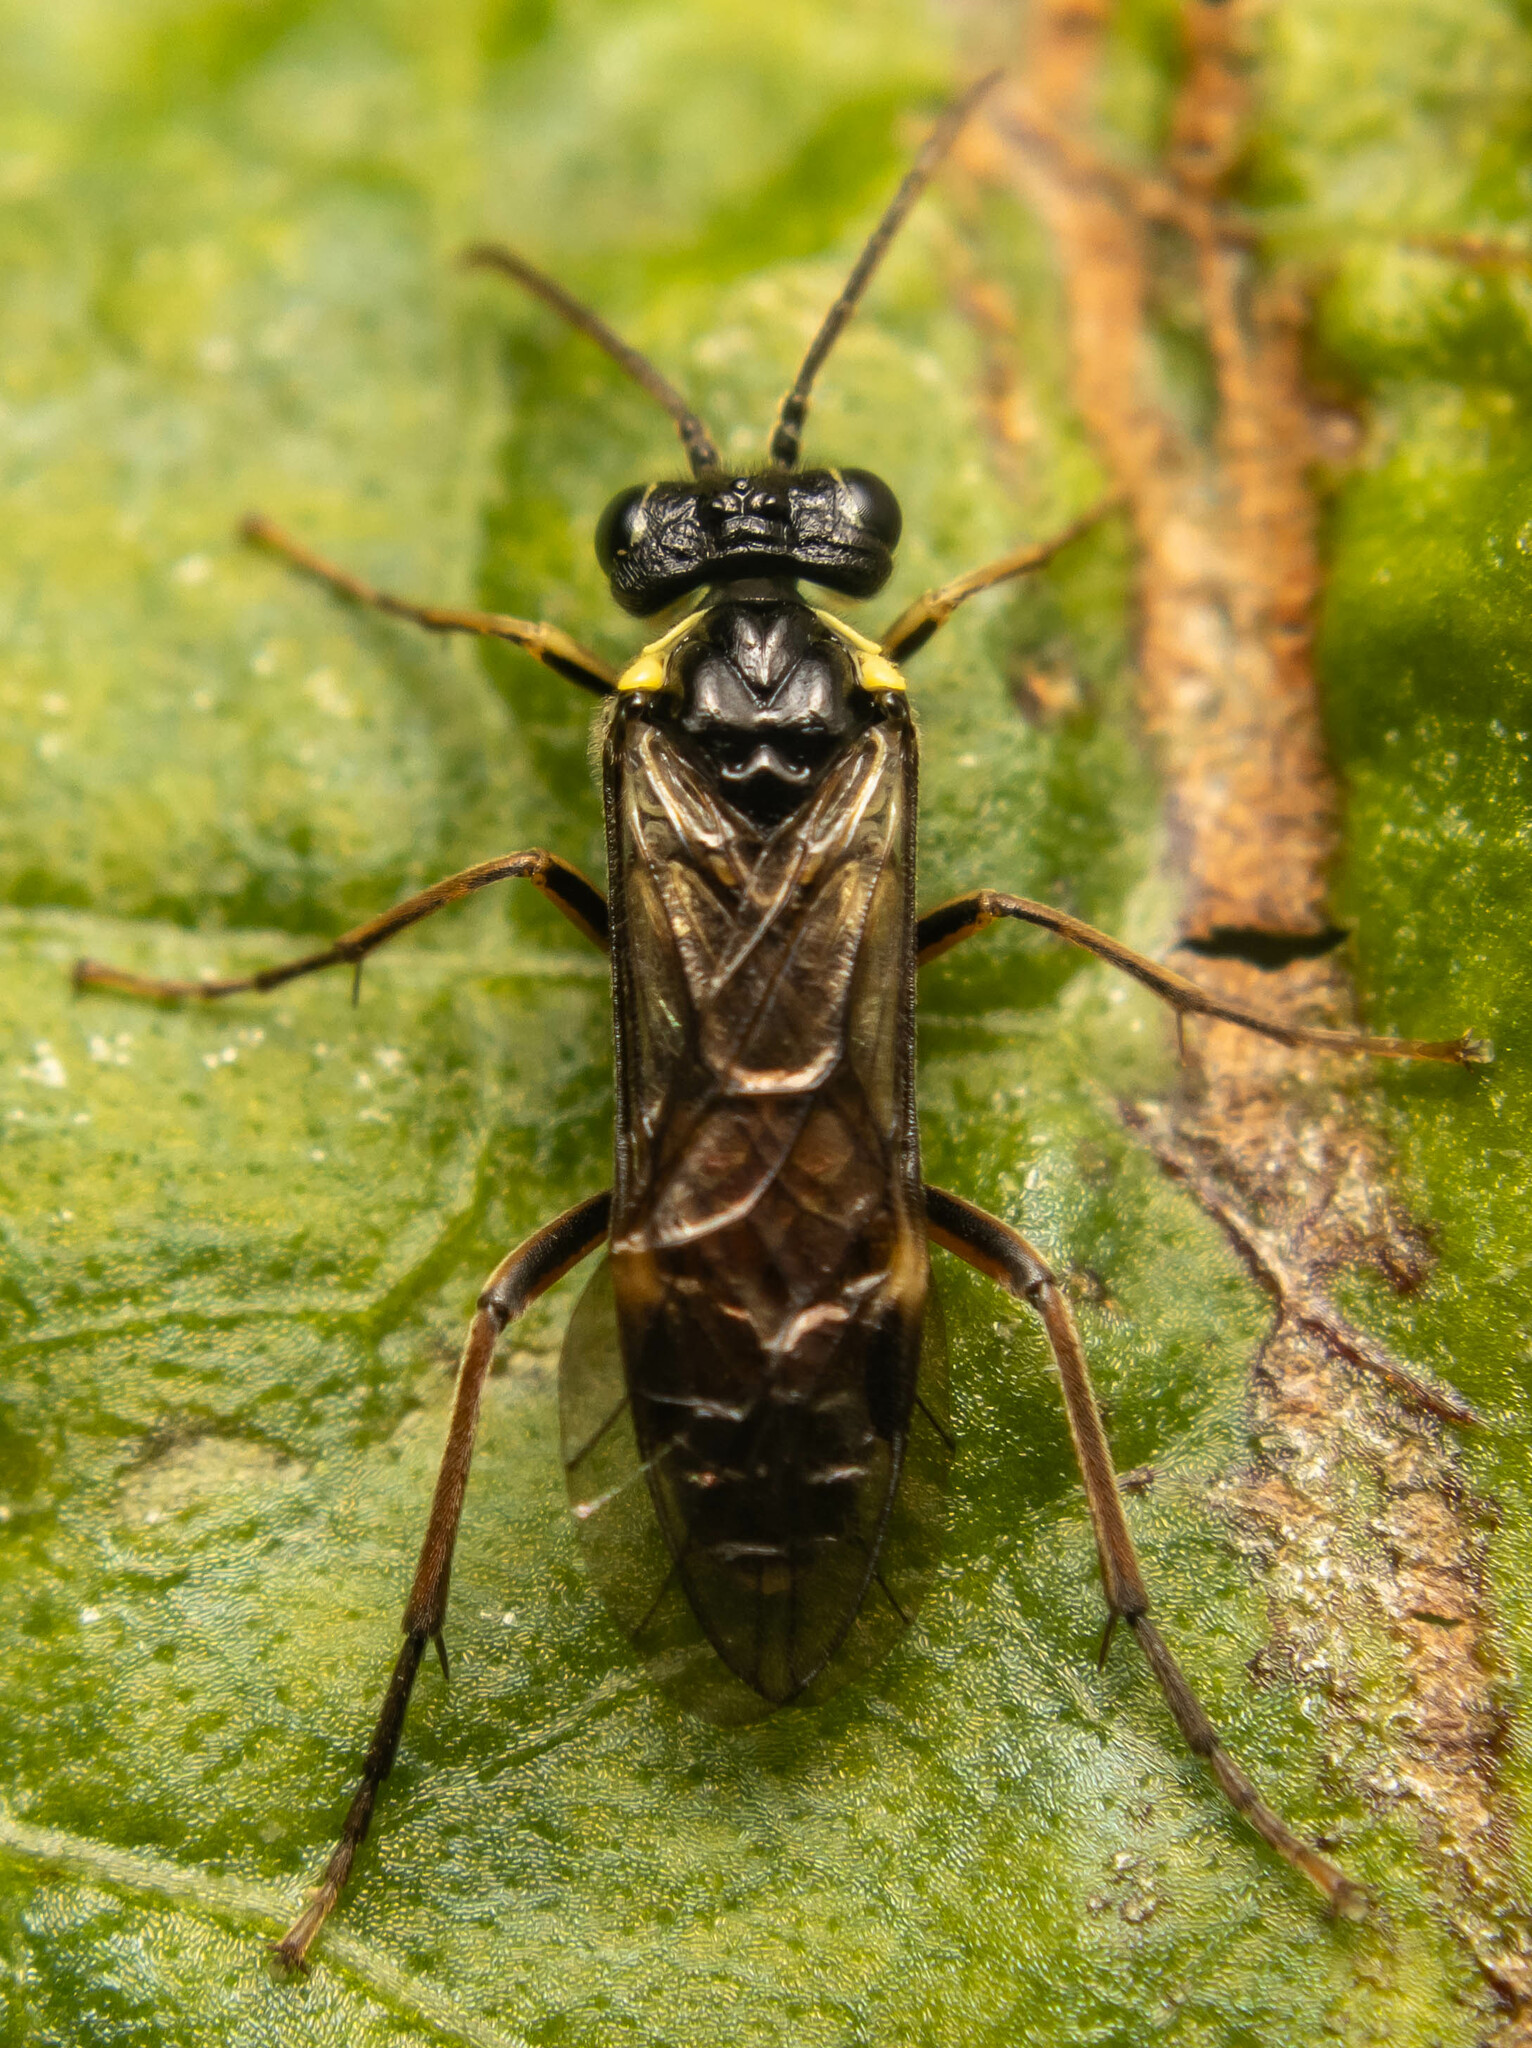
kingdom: Animalia
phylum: Arthropoda
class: Insecta
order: Hymenoptera
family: Tenthredinidae
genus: Aglaostigma
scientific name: Aglaostigma aucupariae
